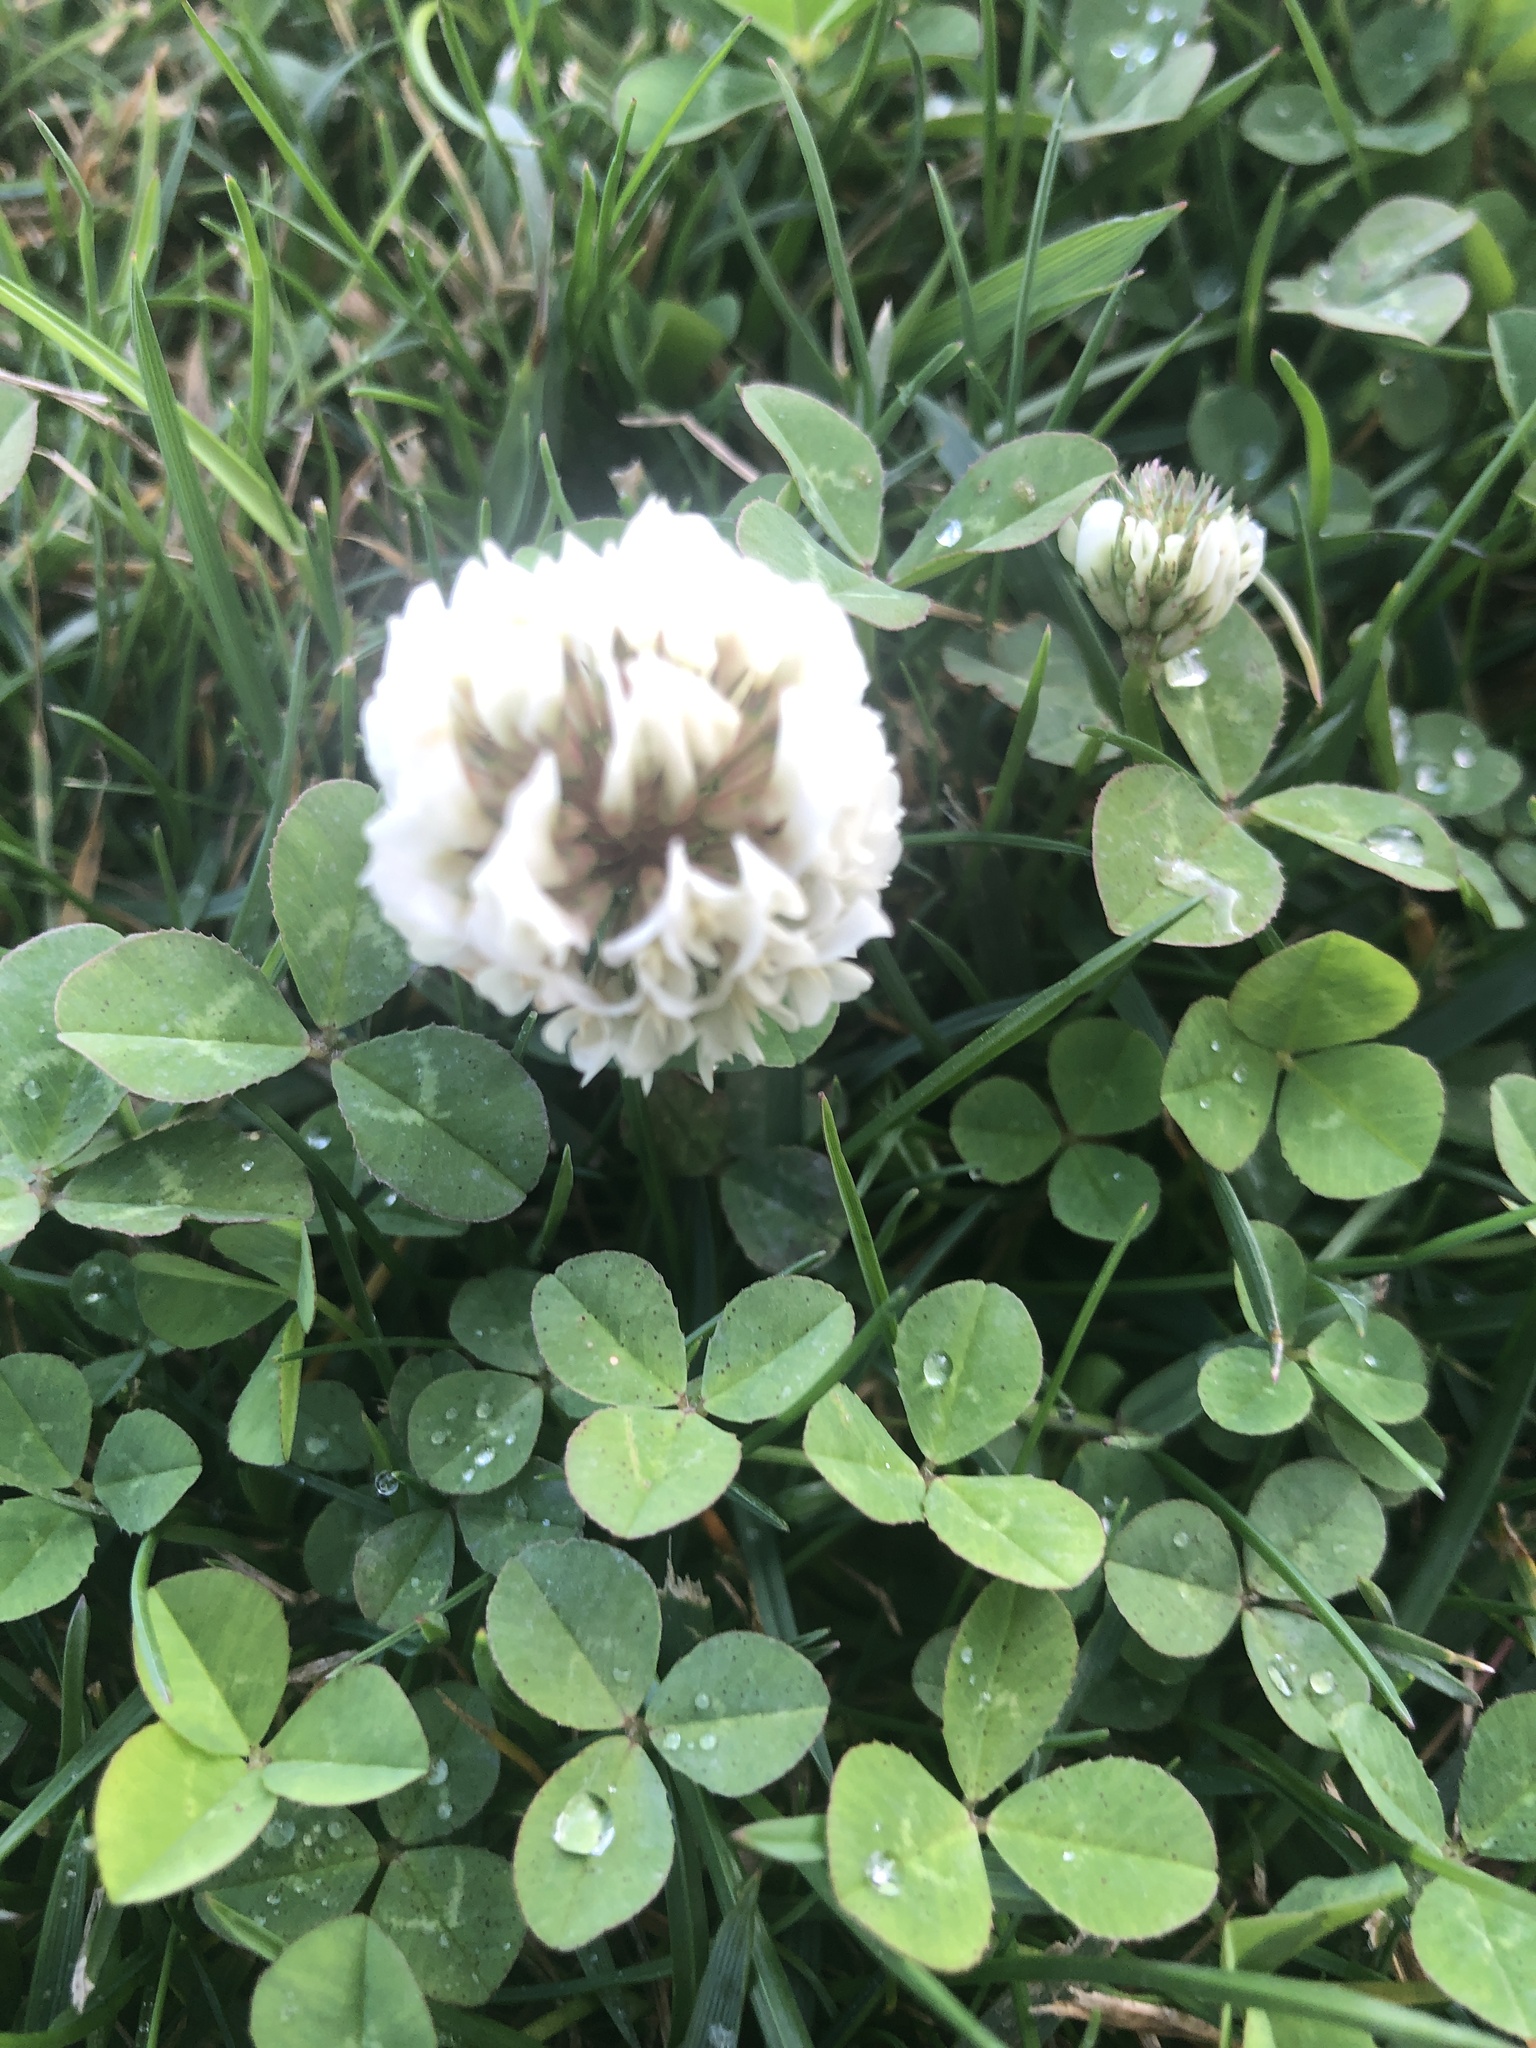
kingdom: Plantae
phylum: Tracheophyta
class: Magnoliopsida
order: Fabales
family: Fabaceae
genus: Trifolium
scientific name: Trifolium repens
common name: White clover
